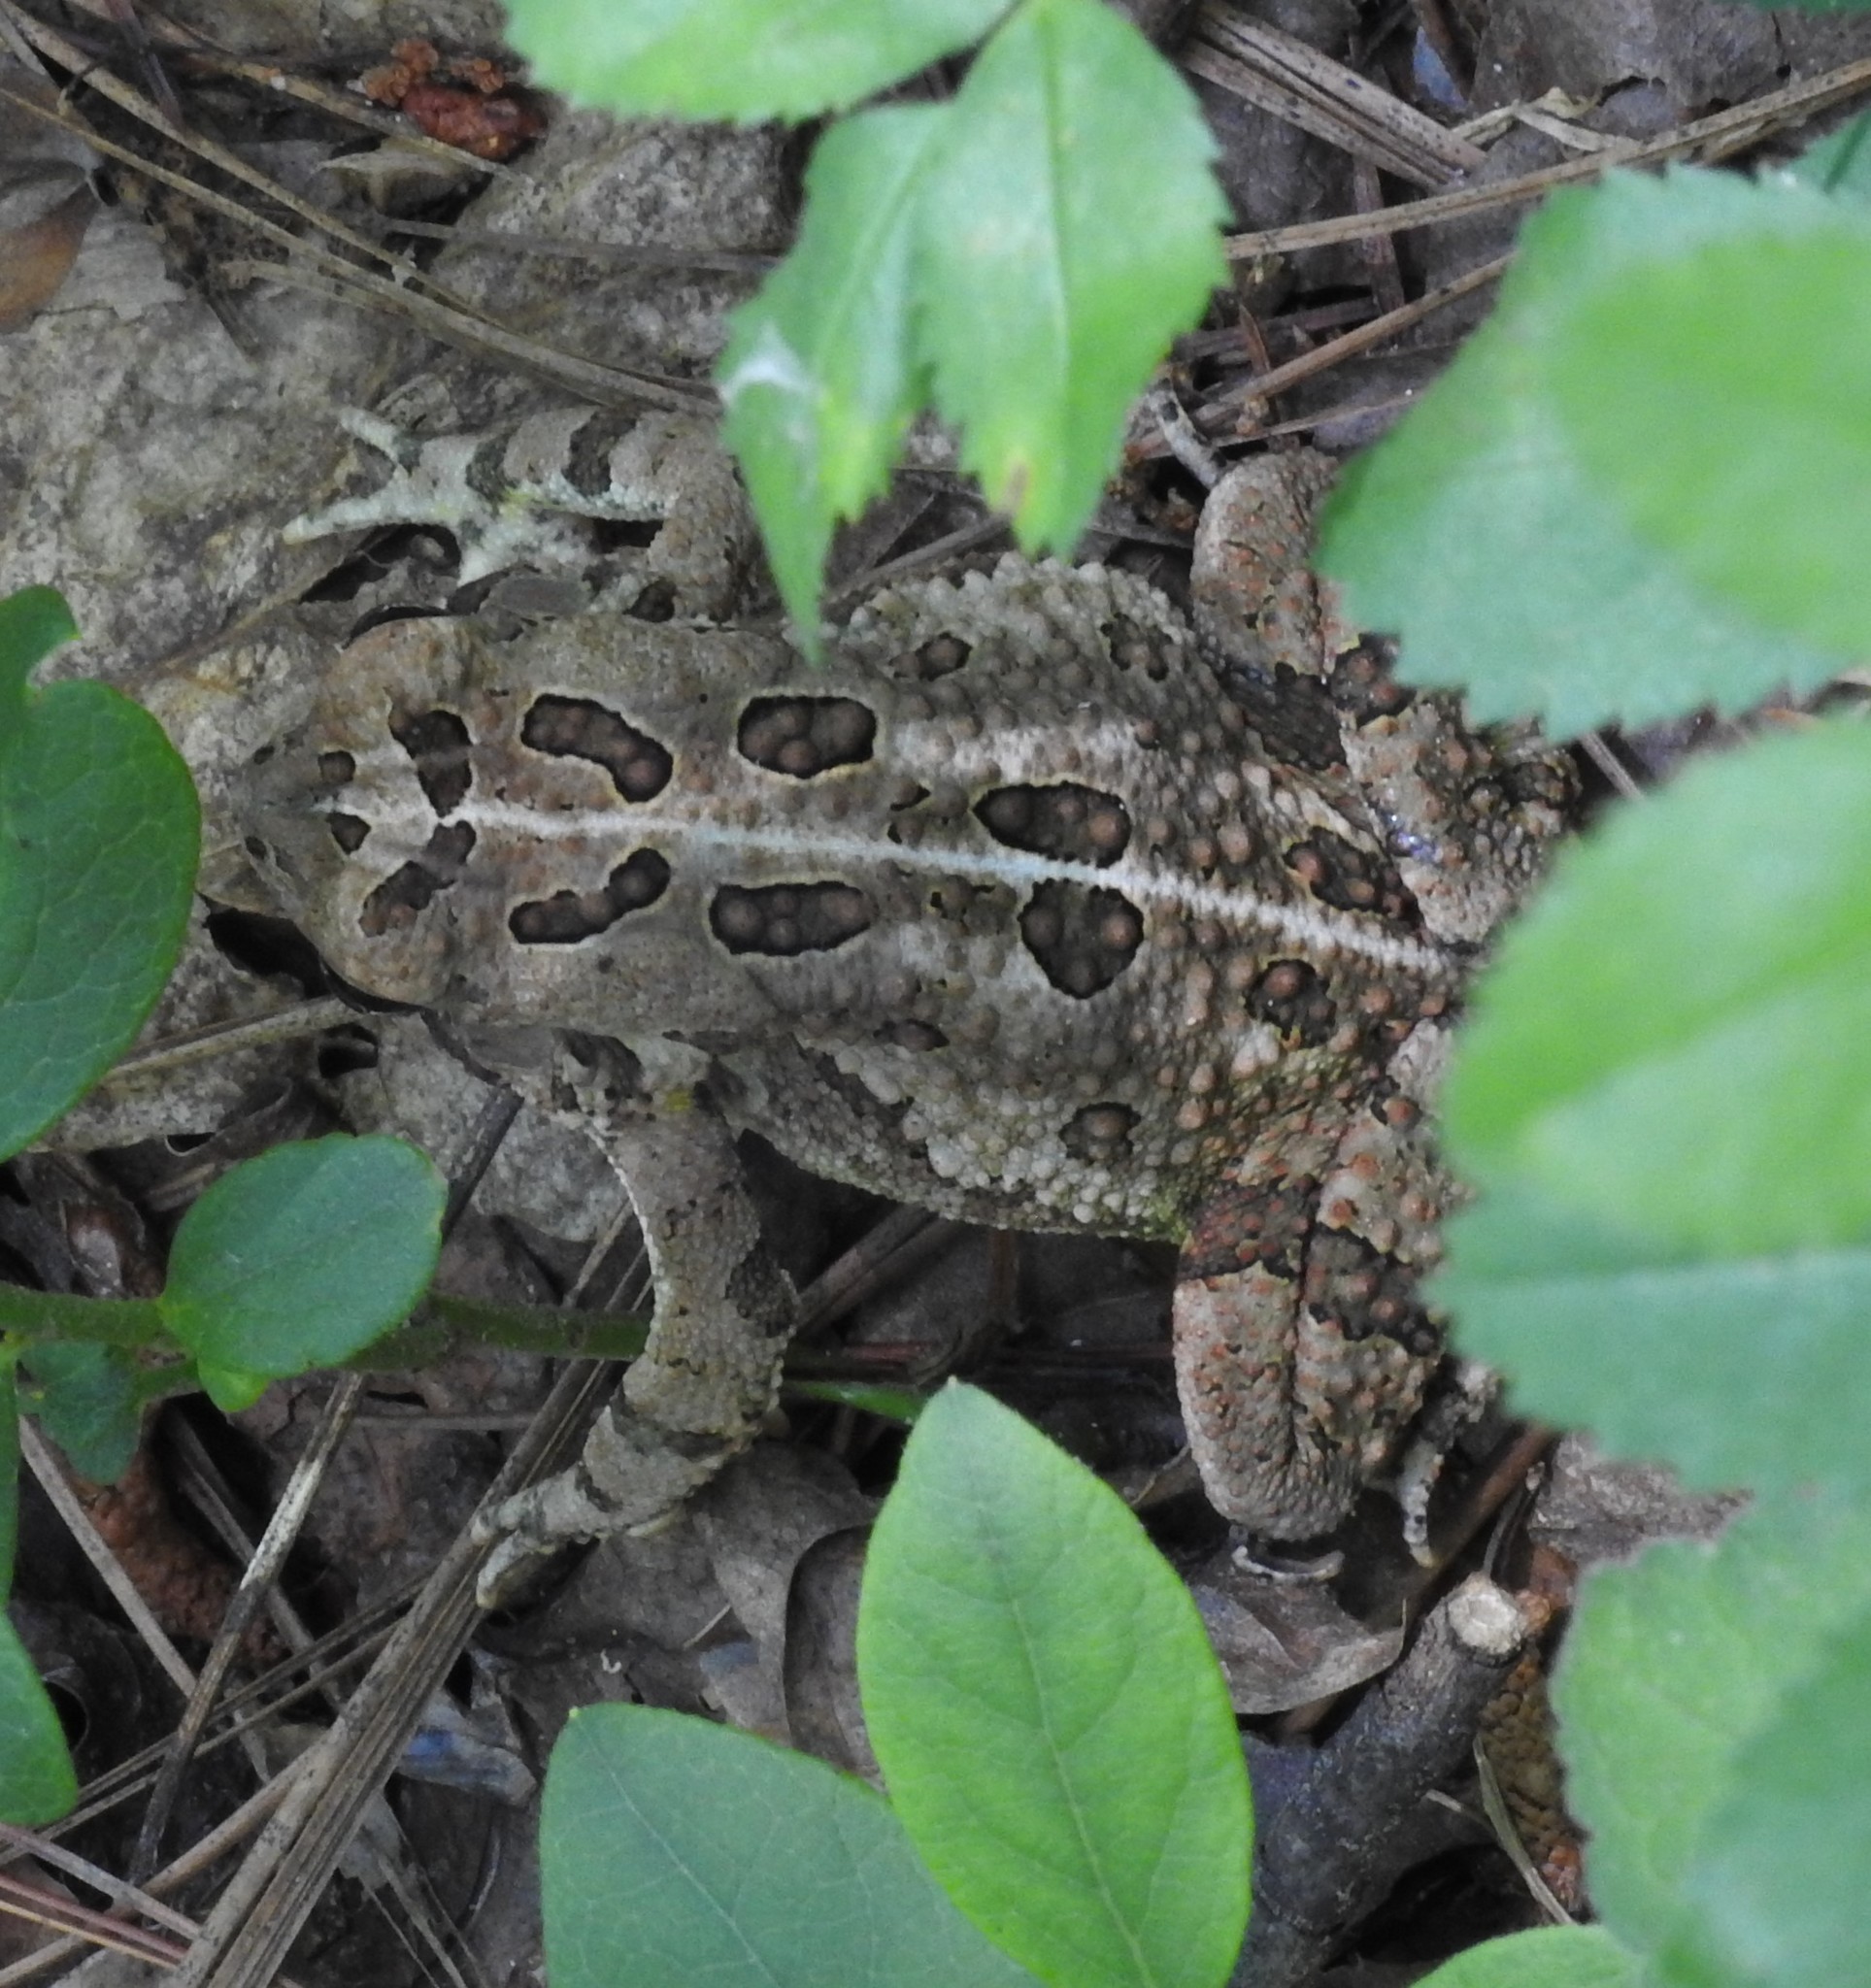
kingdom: Animalia
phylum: Chordata
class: Amphibia
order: Anura
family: Bufonidae
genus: Anaxyrus
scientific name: Anaxyrus fowleri
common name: Fowler's toad
